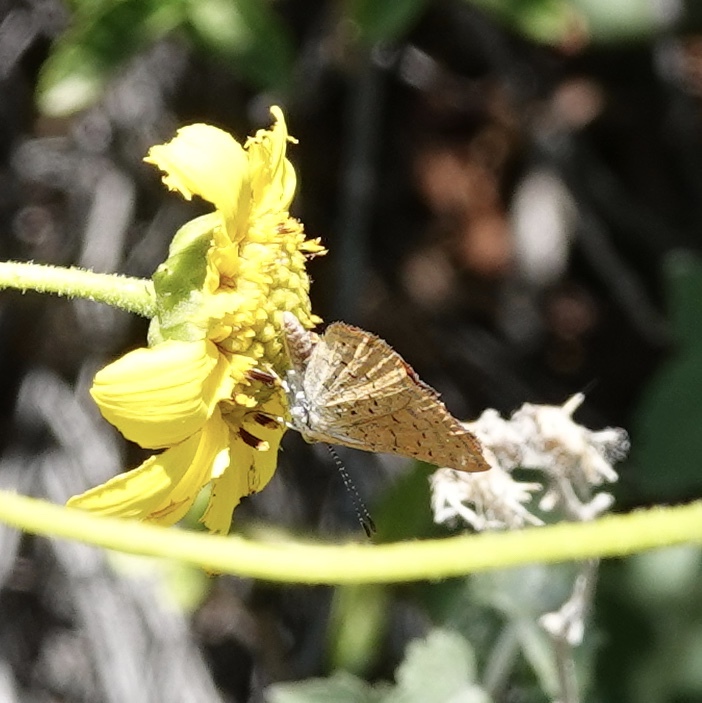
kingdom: Animalia
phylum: Arthropoda
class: Insecta
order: Lepidoptera
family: Lycaenidae
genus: Emesis
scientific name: Emesis wrighti
